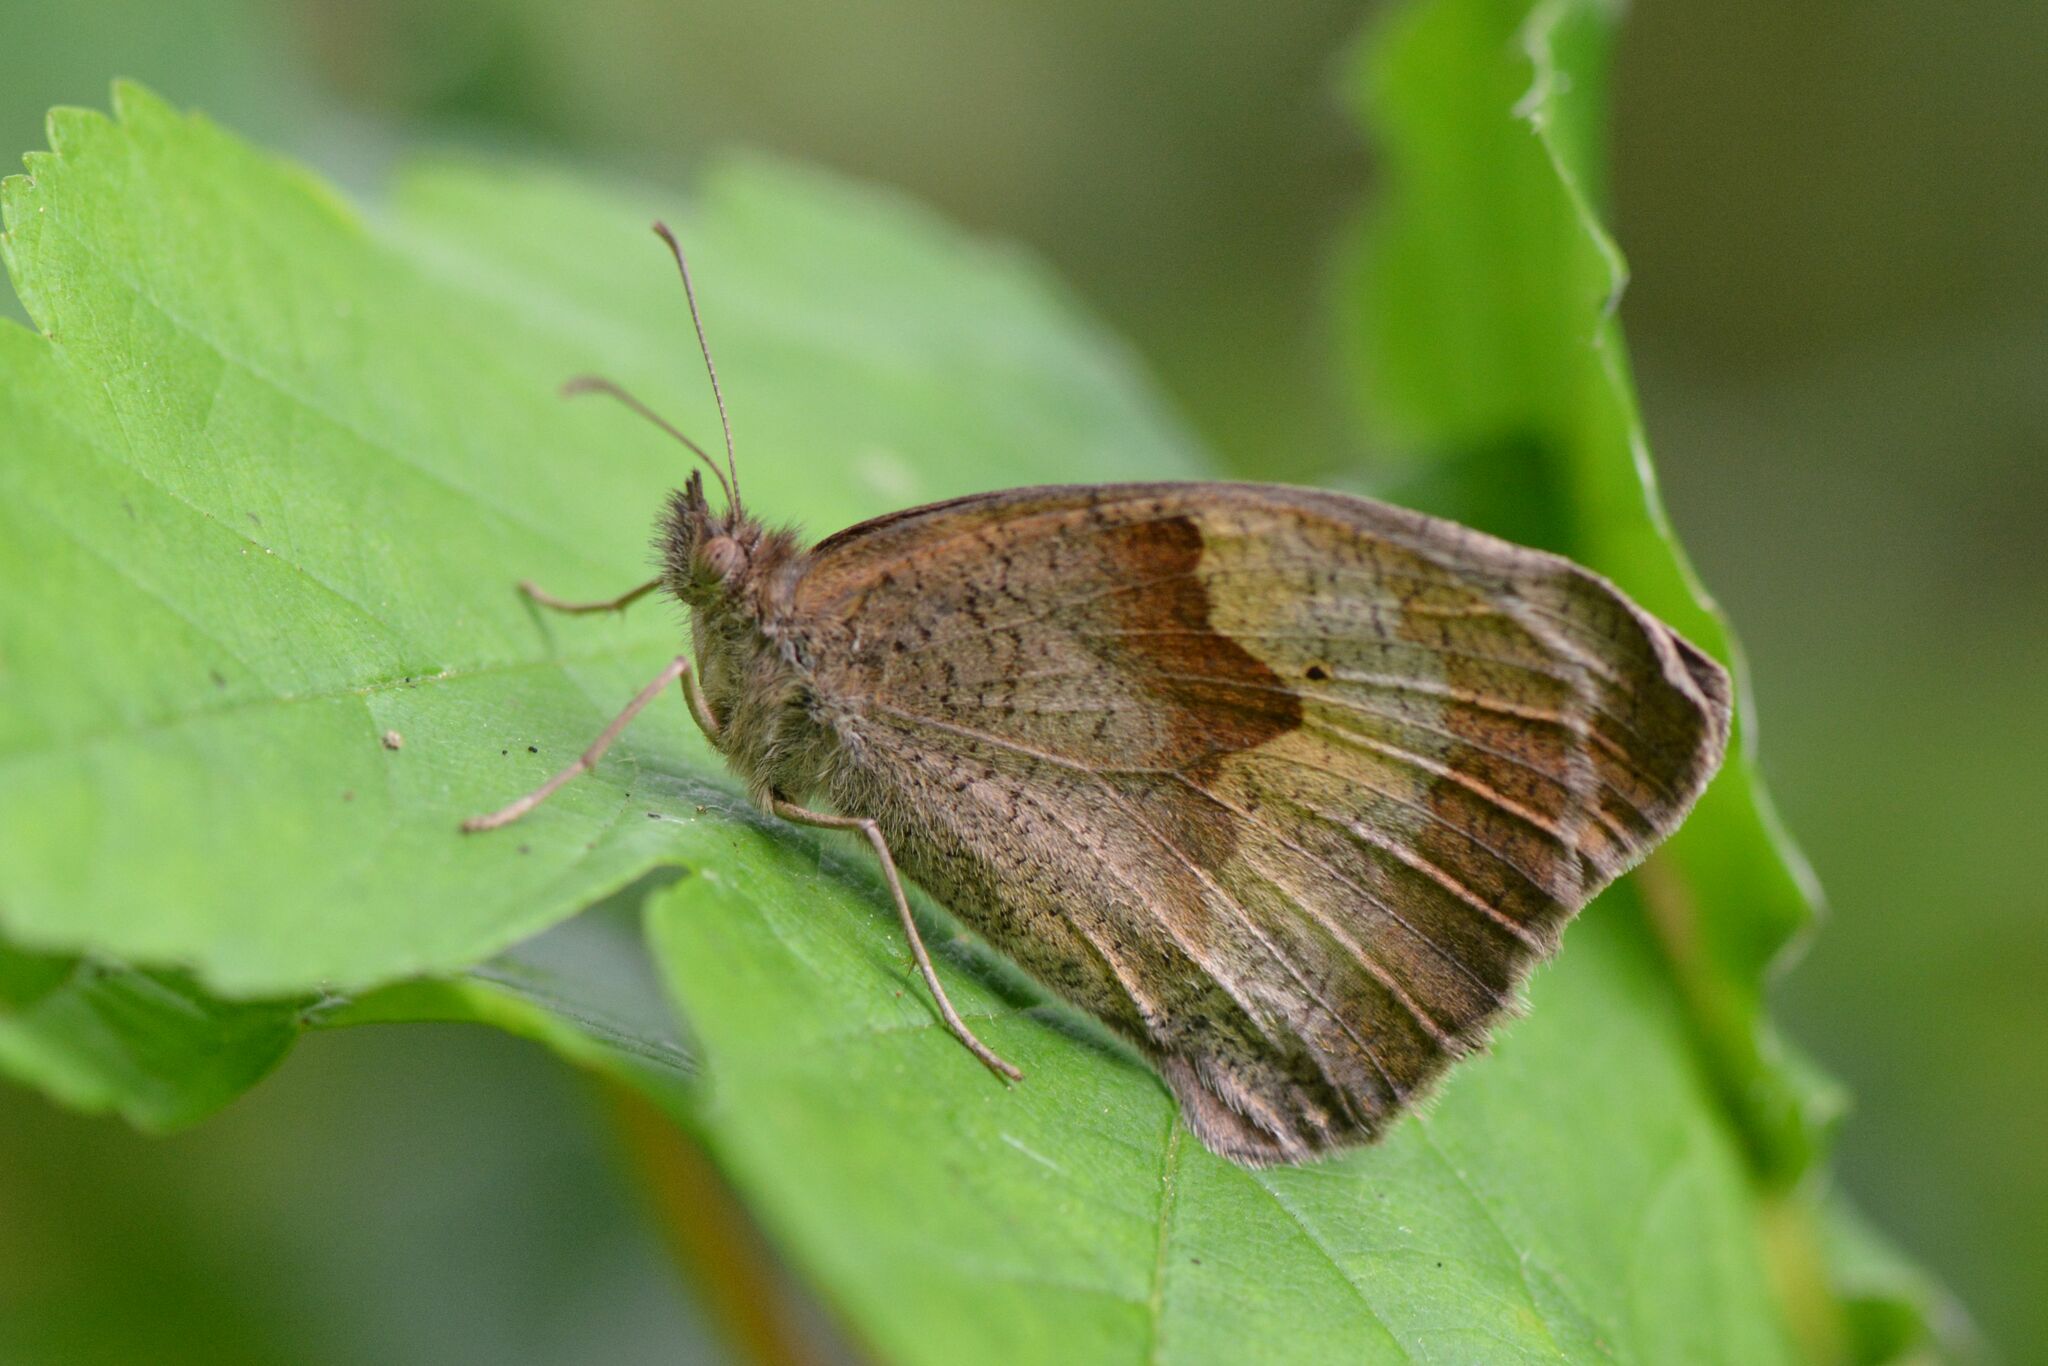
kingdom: Animalia
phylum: Arthropoda
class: Insecta
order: Lepidoptera
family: Nymphalidae
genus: Maniola
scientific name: Maniola jurtina
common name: Meadow brown
